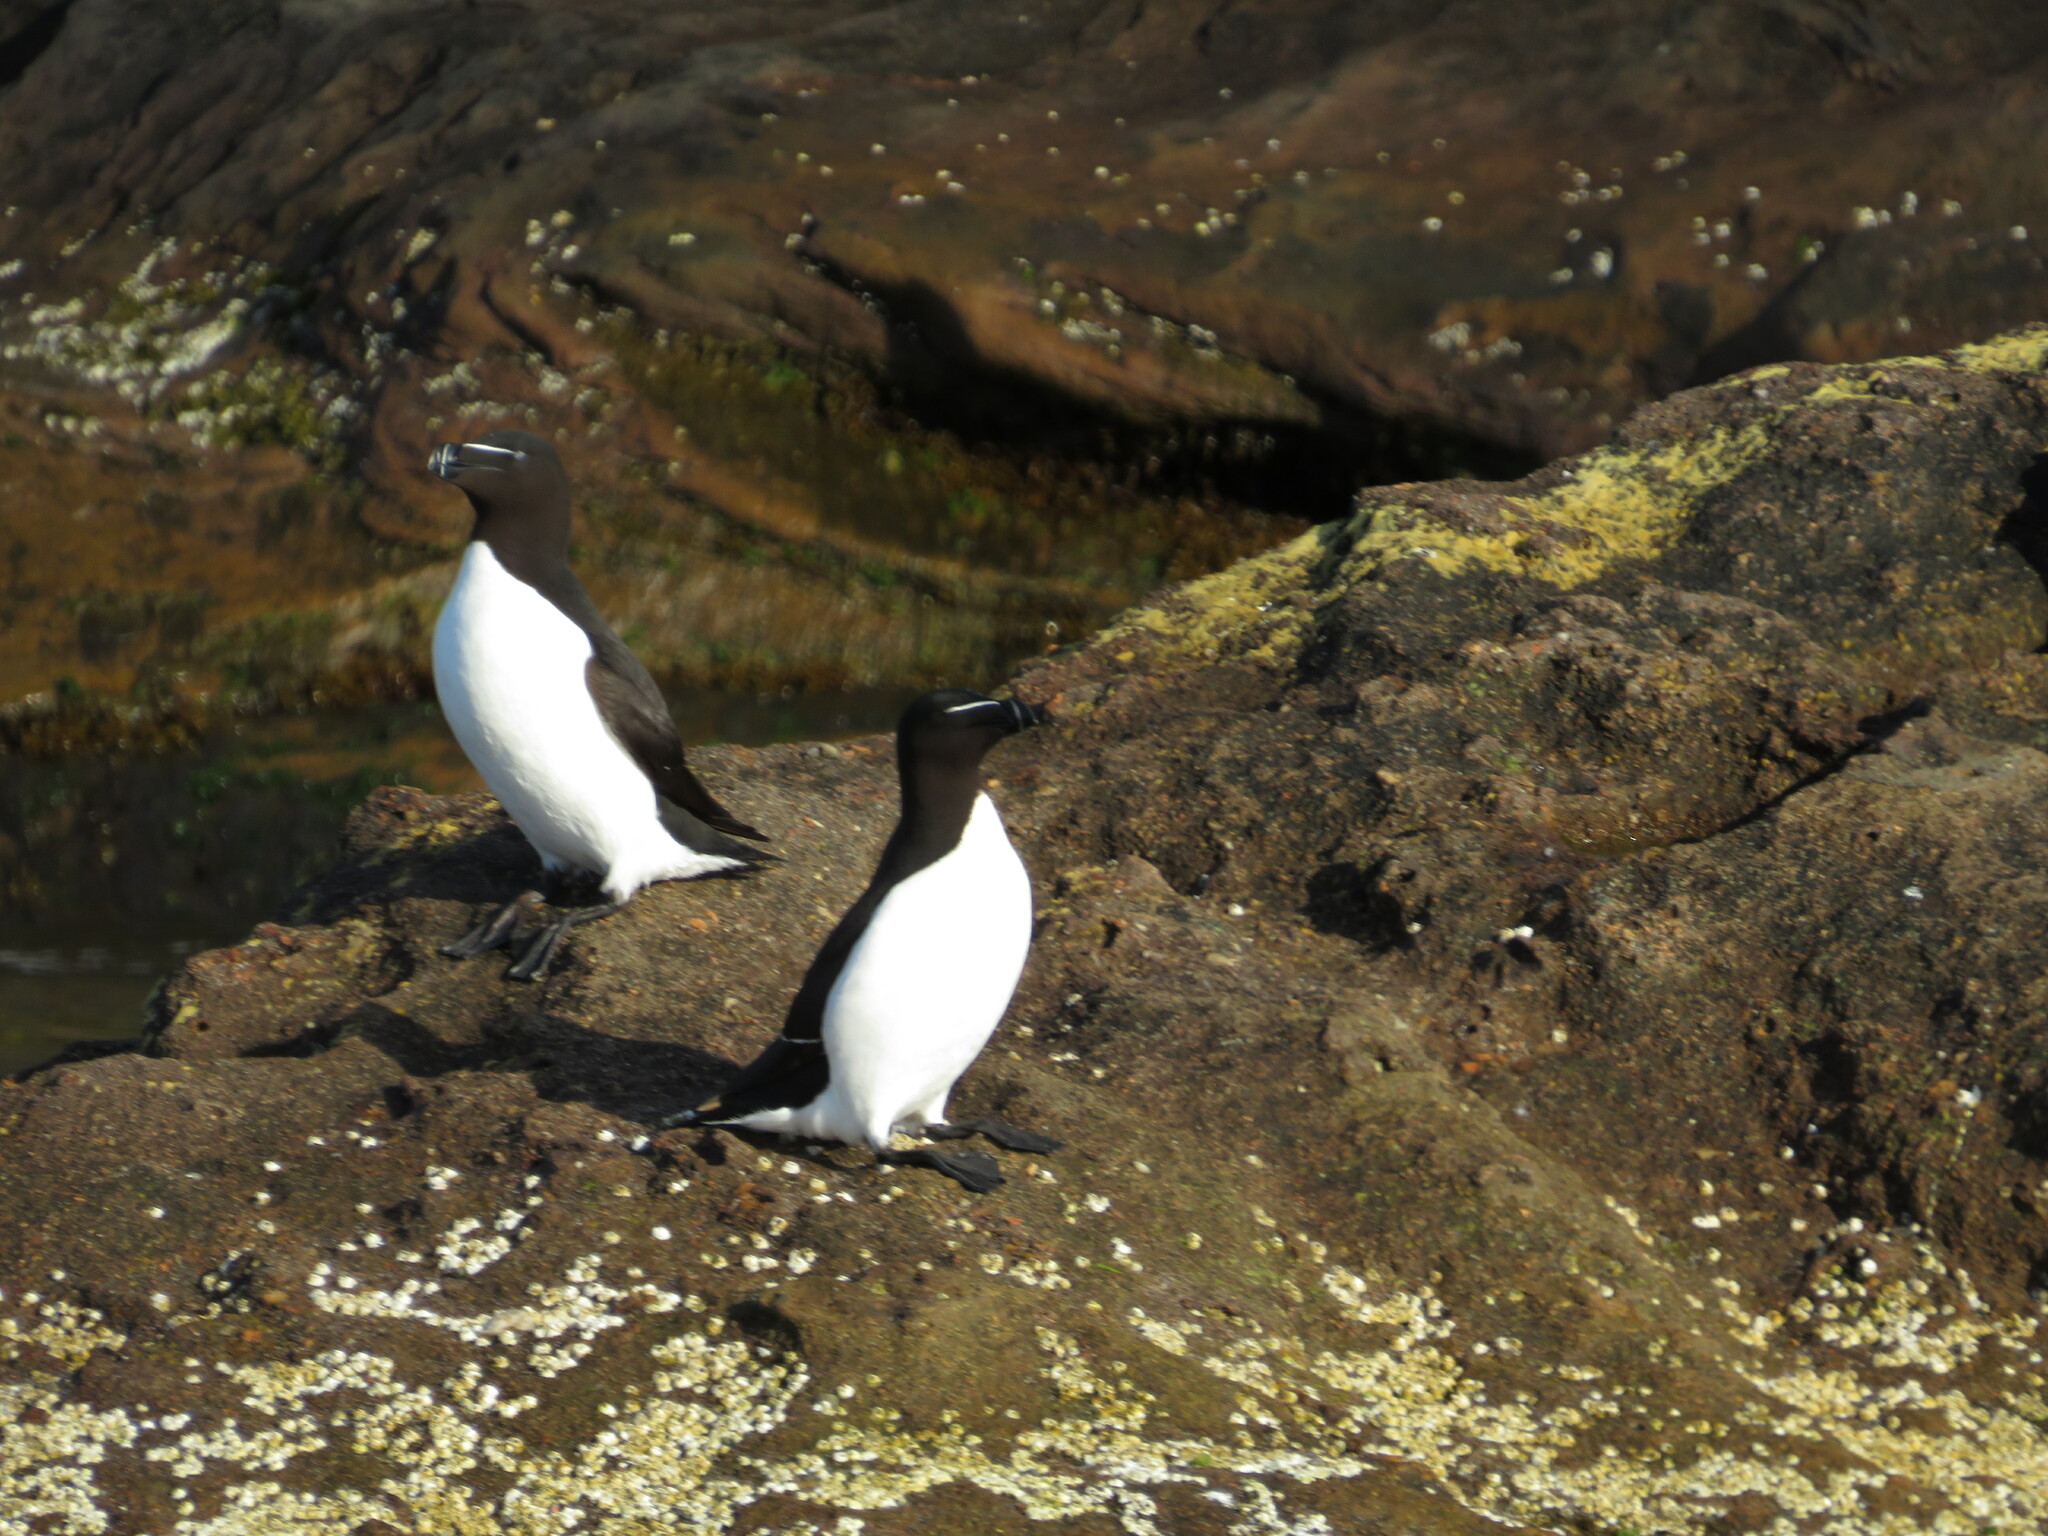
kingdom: Animalia
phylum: Chordata
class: Aves
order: Charadriiformes
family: Alcidae
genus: Alca
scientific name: Alca torda
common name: Razorbill
